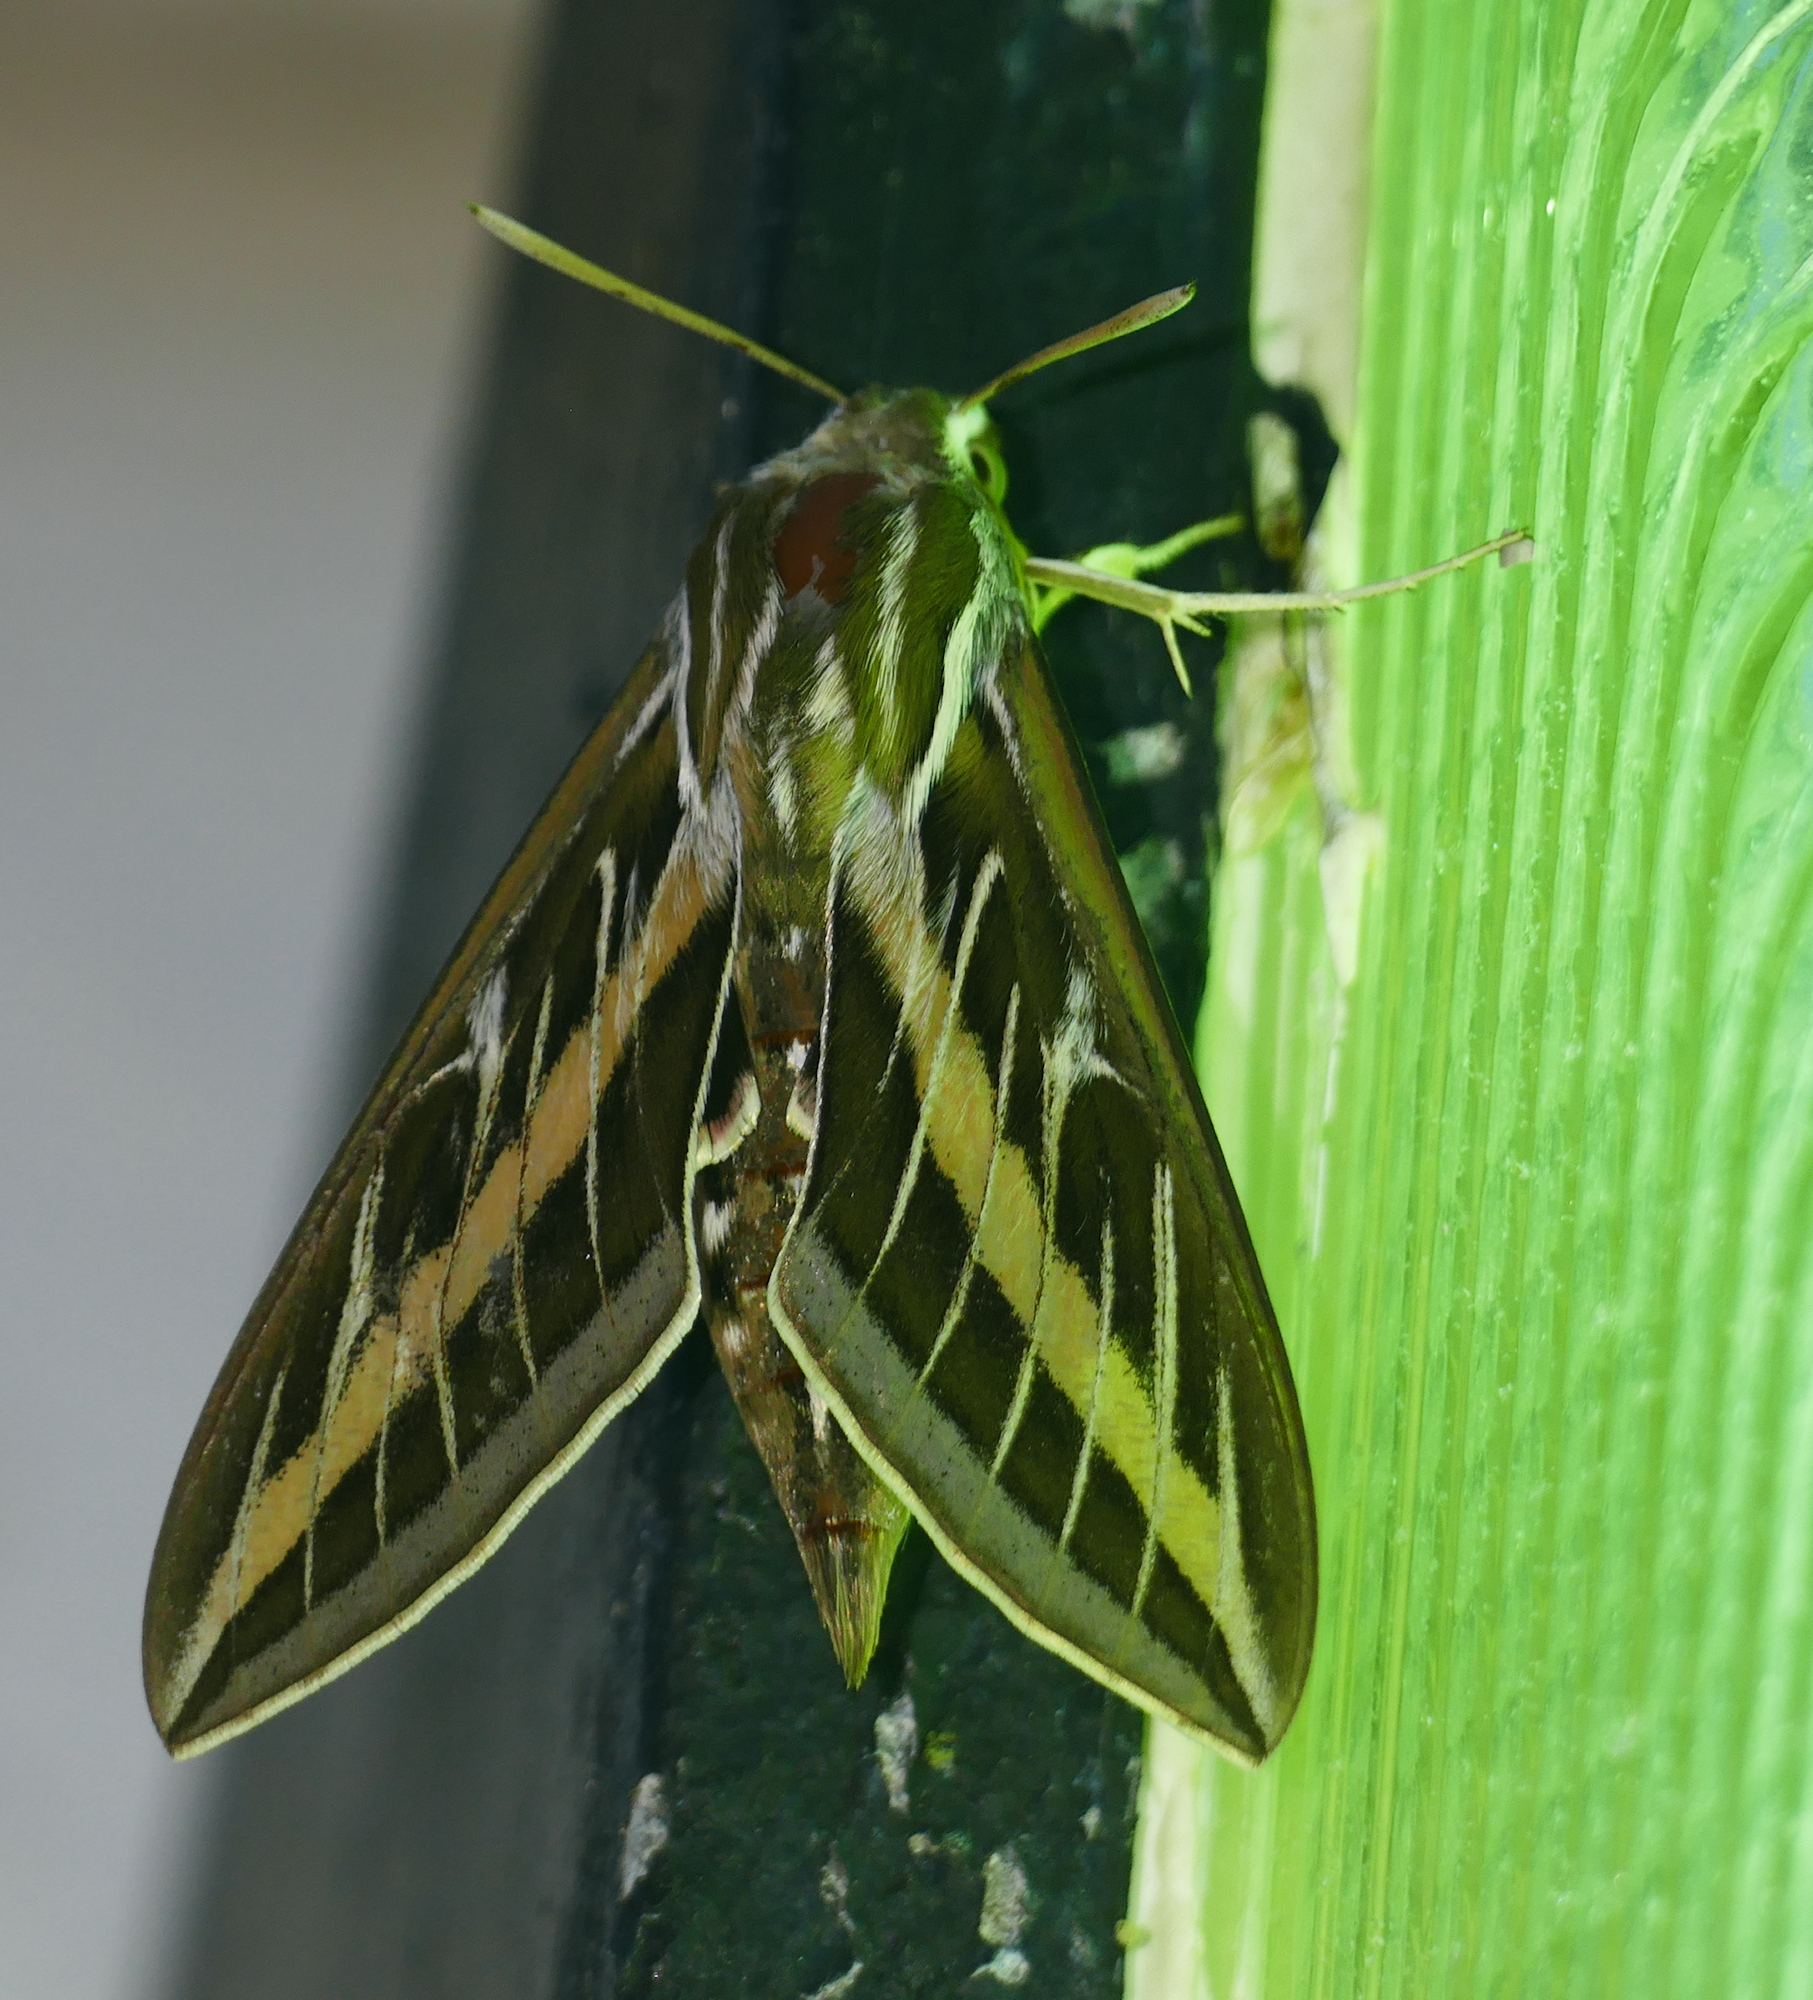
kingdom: Animalia
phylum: Arthropoda
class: Insecta
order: Lepidoptera
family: Sphingidae
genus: Hyles
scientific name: Hyles lineata
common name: White-lined sphinx
